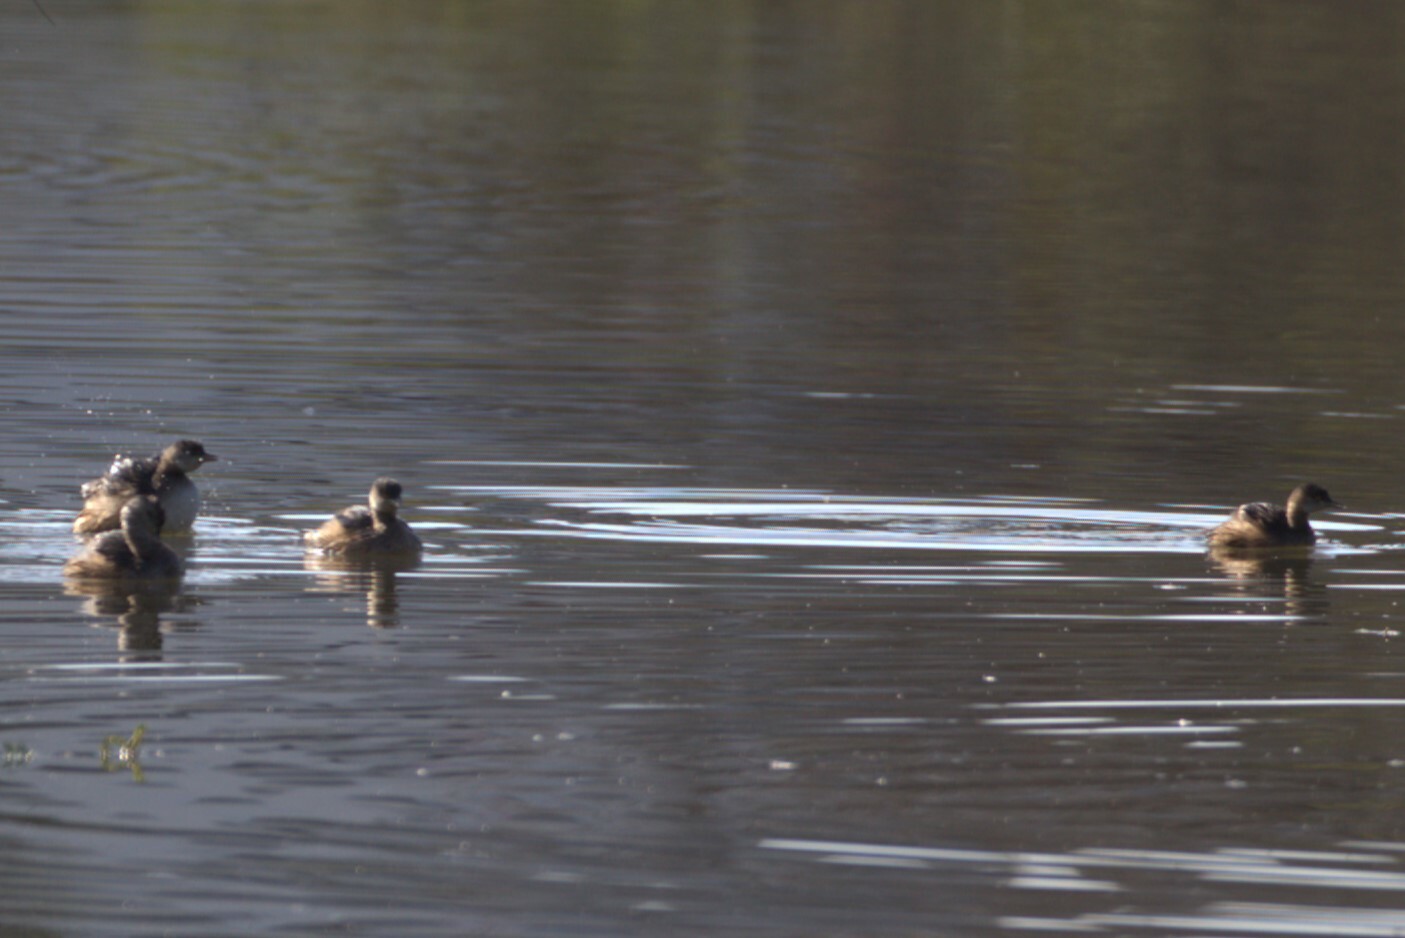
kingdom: Animalia
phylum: Chordata
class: Aves
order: Podicipediformes
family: Podicipedidae
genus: Tachybaptus
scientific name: Tachybaptus novaehollandiae
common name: Australasian grebe
